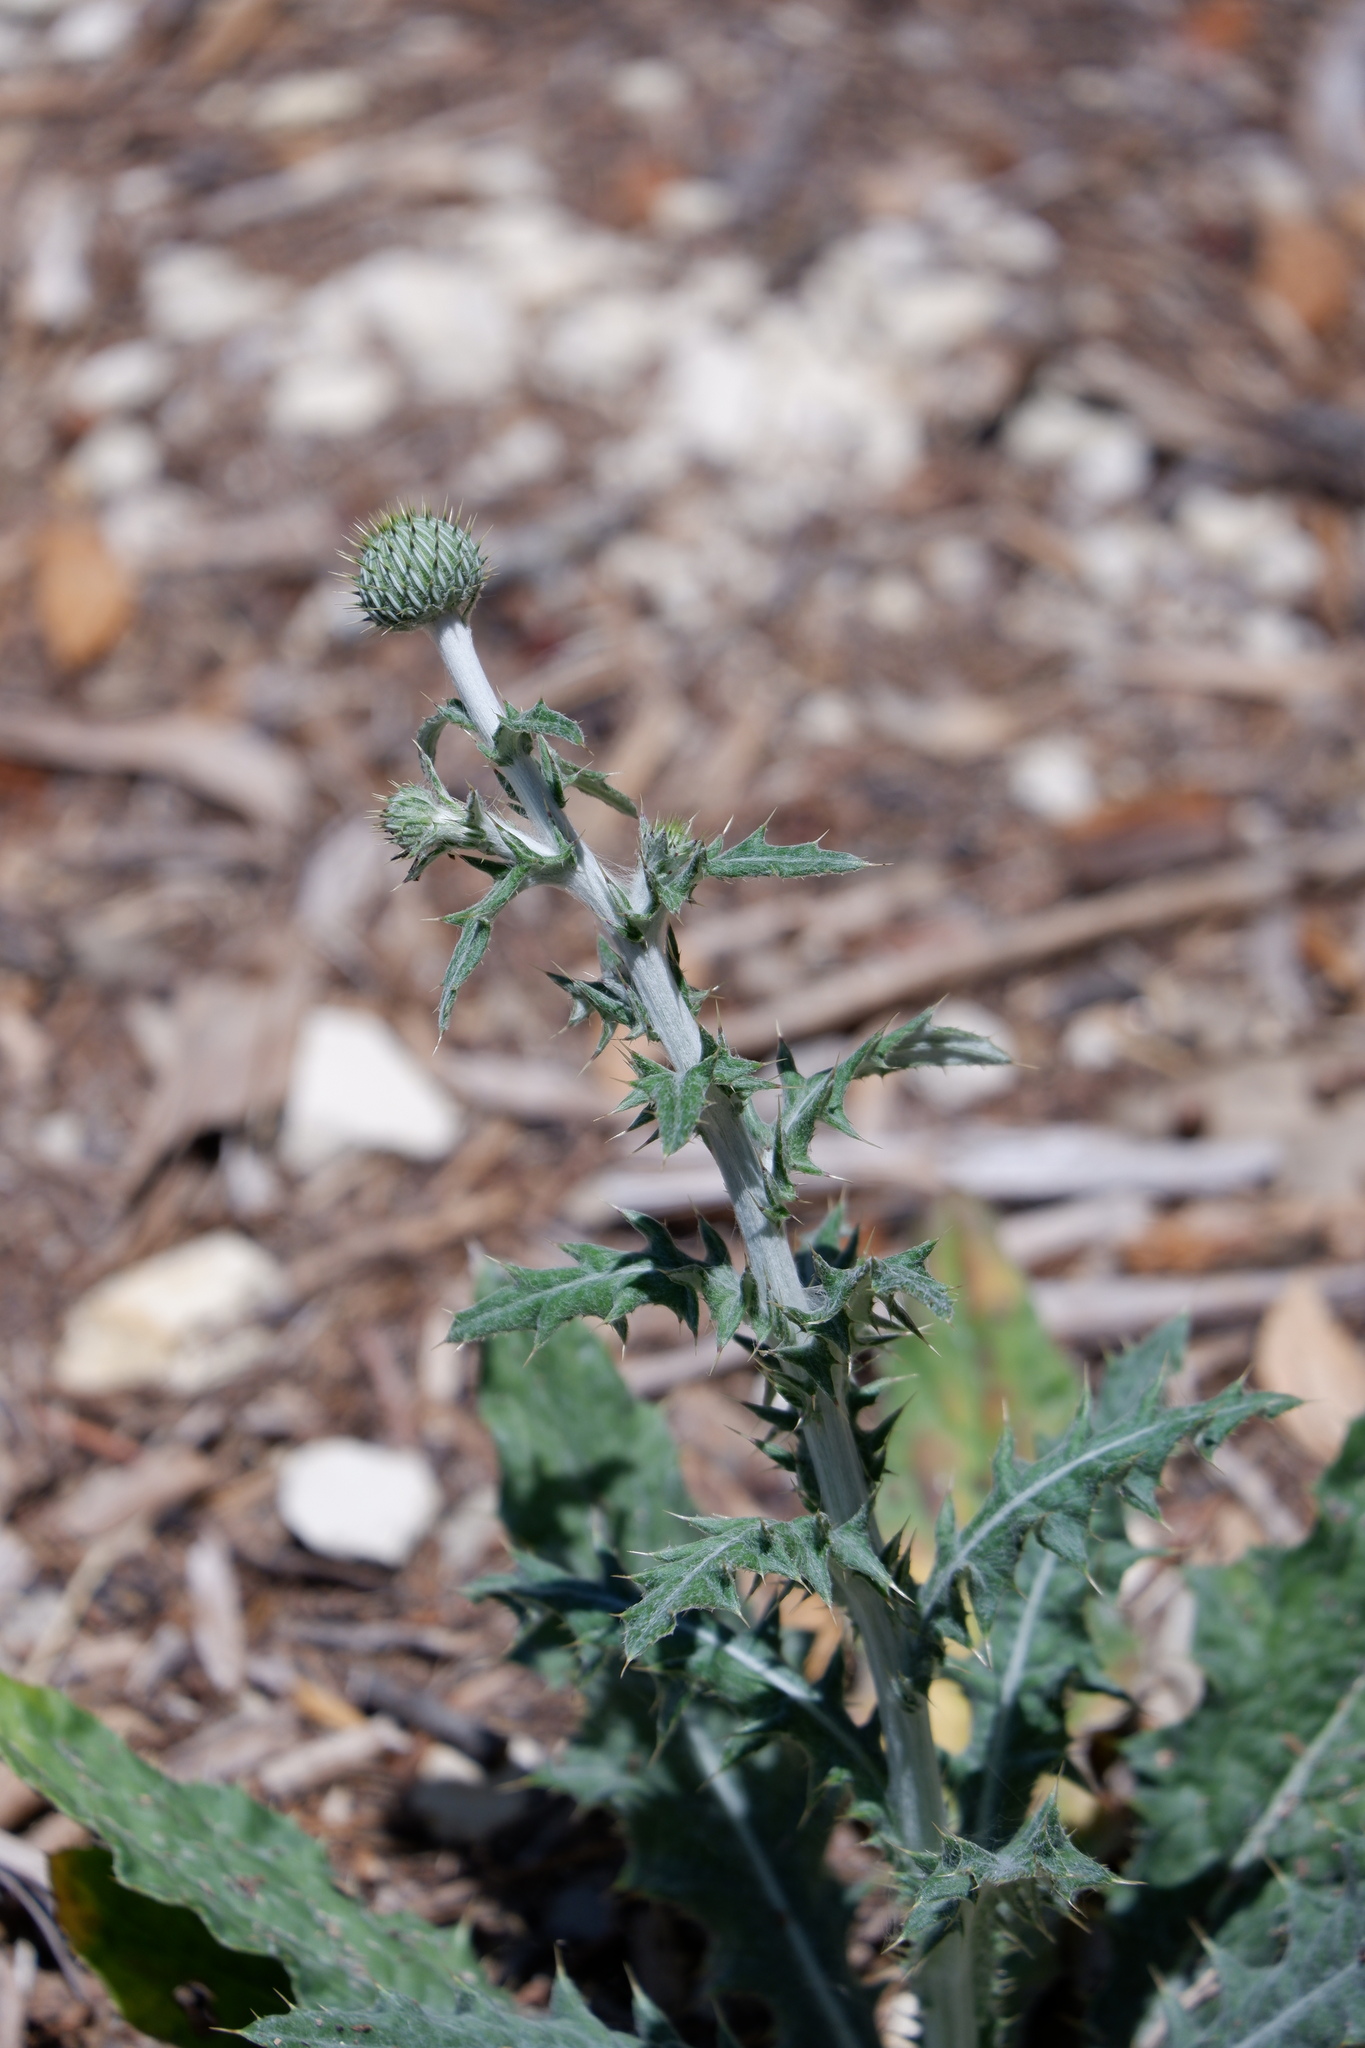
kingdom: Plantae
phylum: Tracheophyta
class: Magnoliopsida
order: Asterales
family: Asteraceae
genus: Cirsium
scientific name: Cirsium texanum
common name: Texas purple thistle
